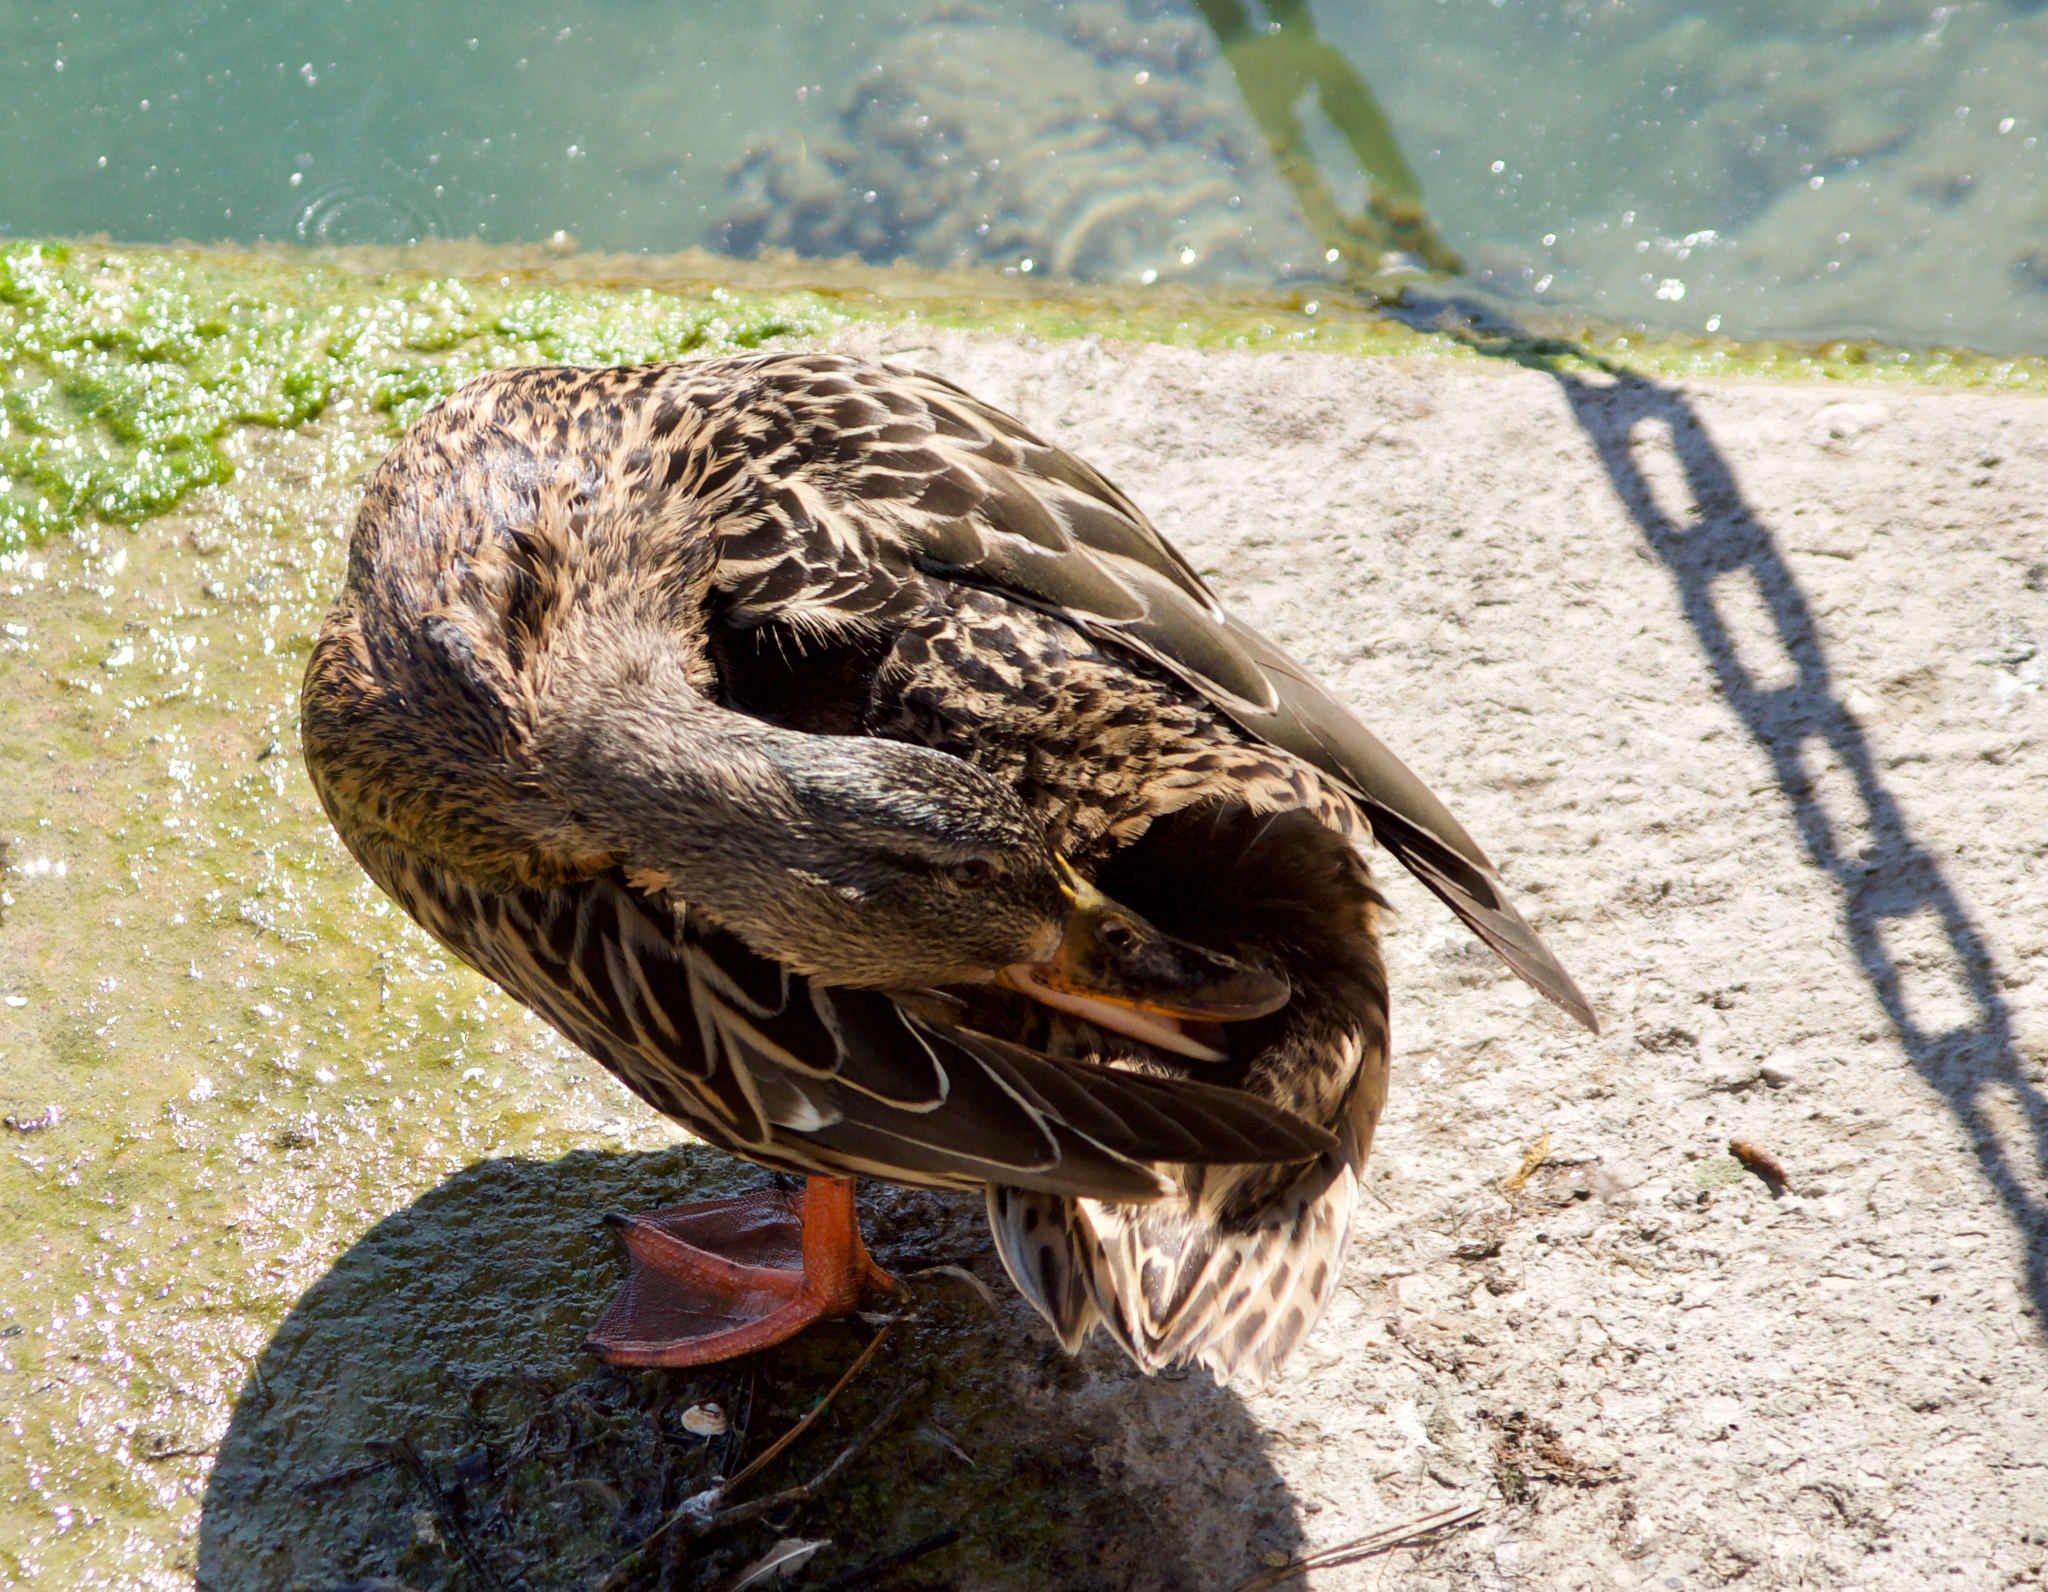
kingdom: Animalia
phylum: Chordata
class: Aves
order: Anseriformes
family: Anatidae
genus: Anas
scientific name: Anas platyrhynchos
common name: Mallard
